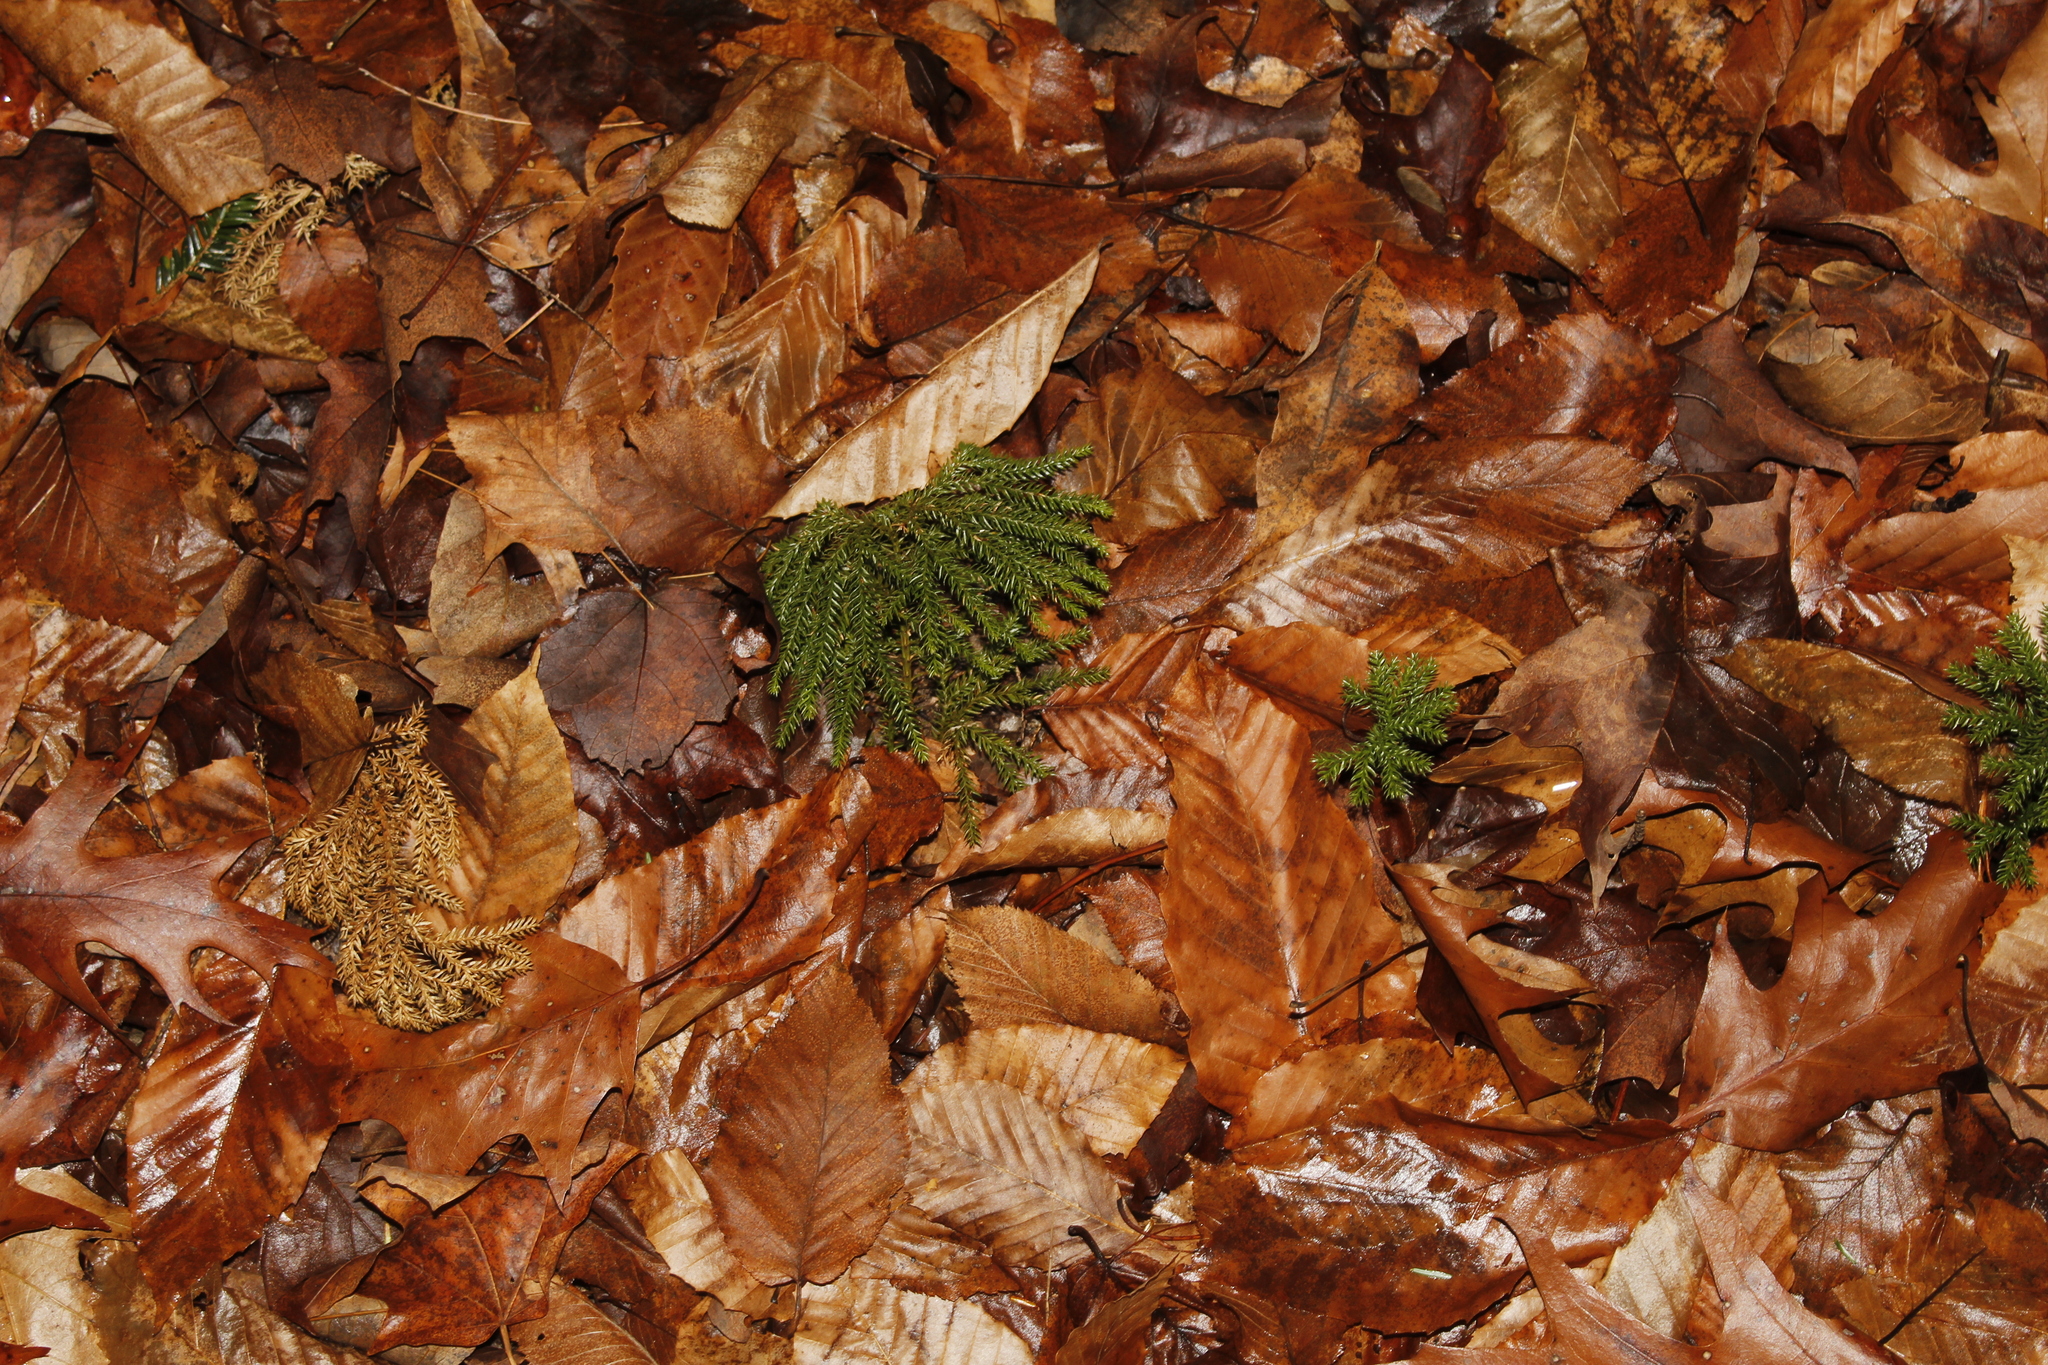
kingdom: Plantae
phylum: Tracheophyta
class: Lycopodiopsida
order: Lycopodiales
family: Lycopodiaceae
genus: Dendrolycopodium
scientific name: Dendrolycopodium obscurum
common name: Common ground-pine
